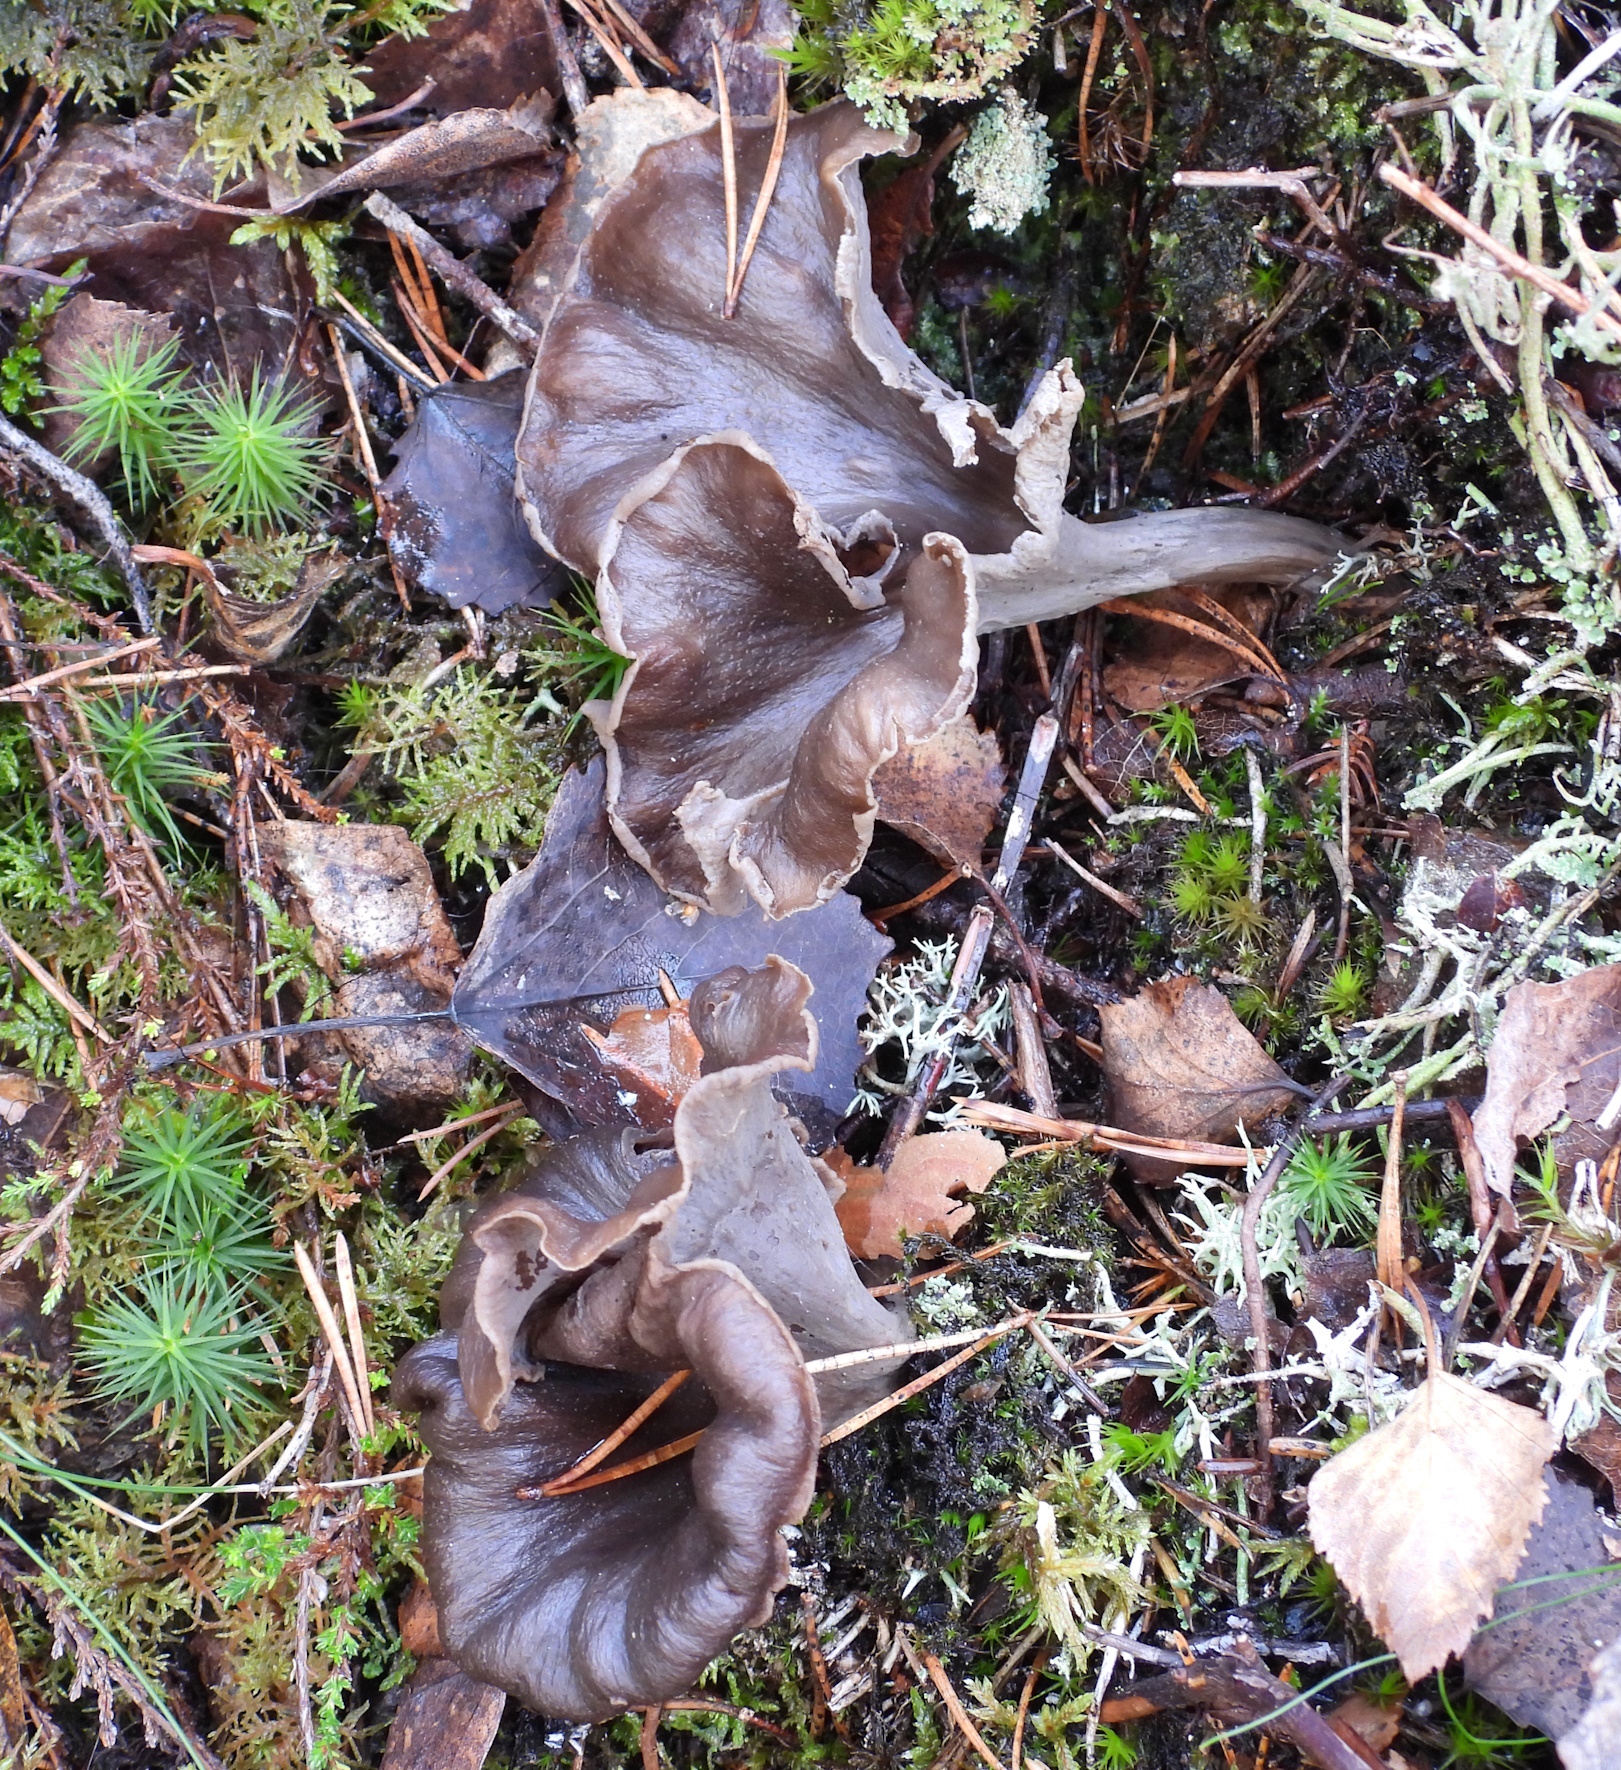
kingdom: Fungi
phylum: Basidiomycota
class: Agaricomycetes
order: Cantharellales
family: Hydnaceae
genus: Craterellus
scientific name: Craterellus caeruleofuscus
